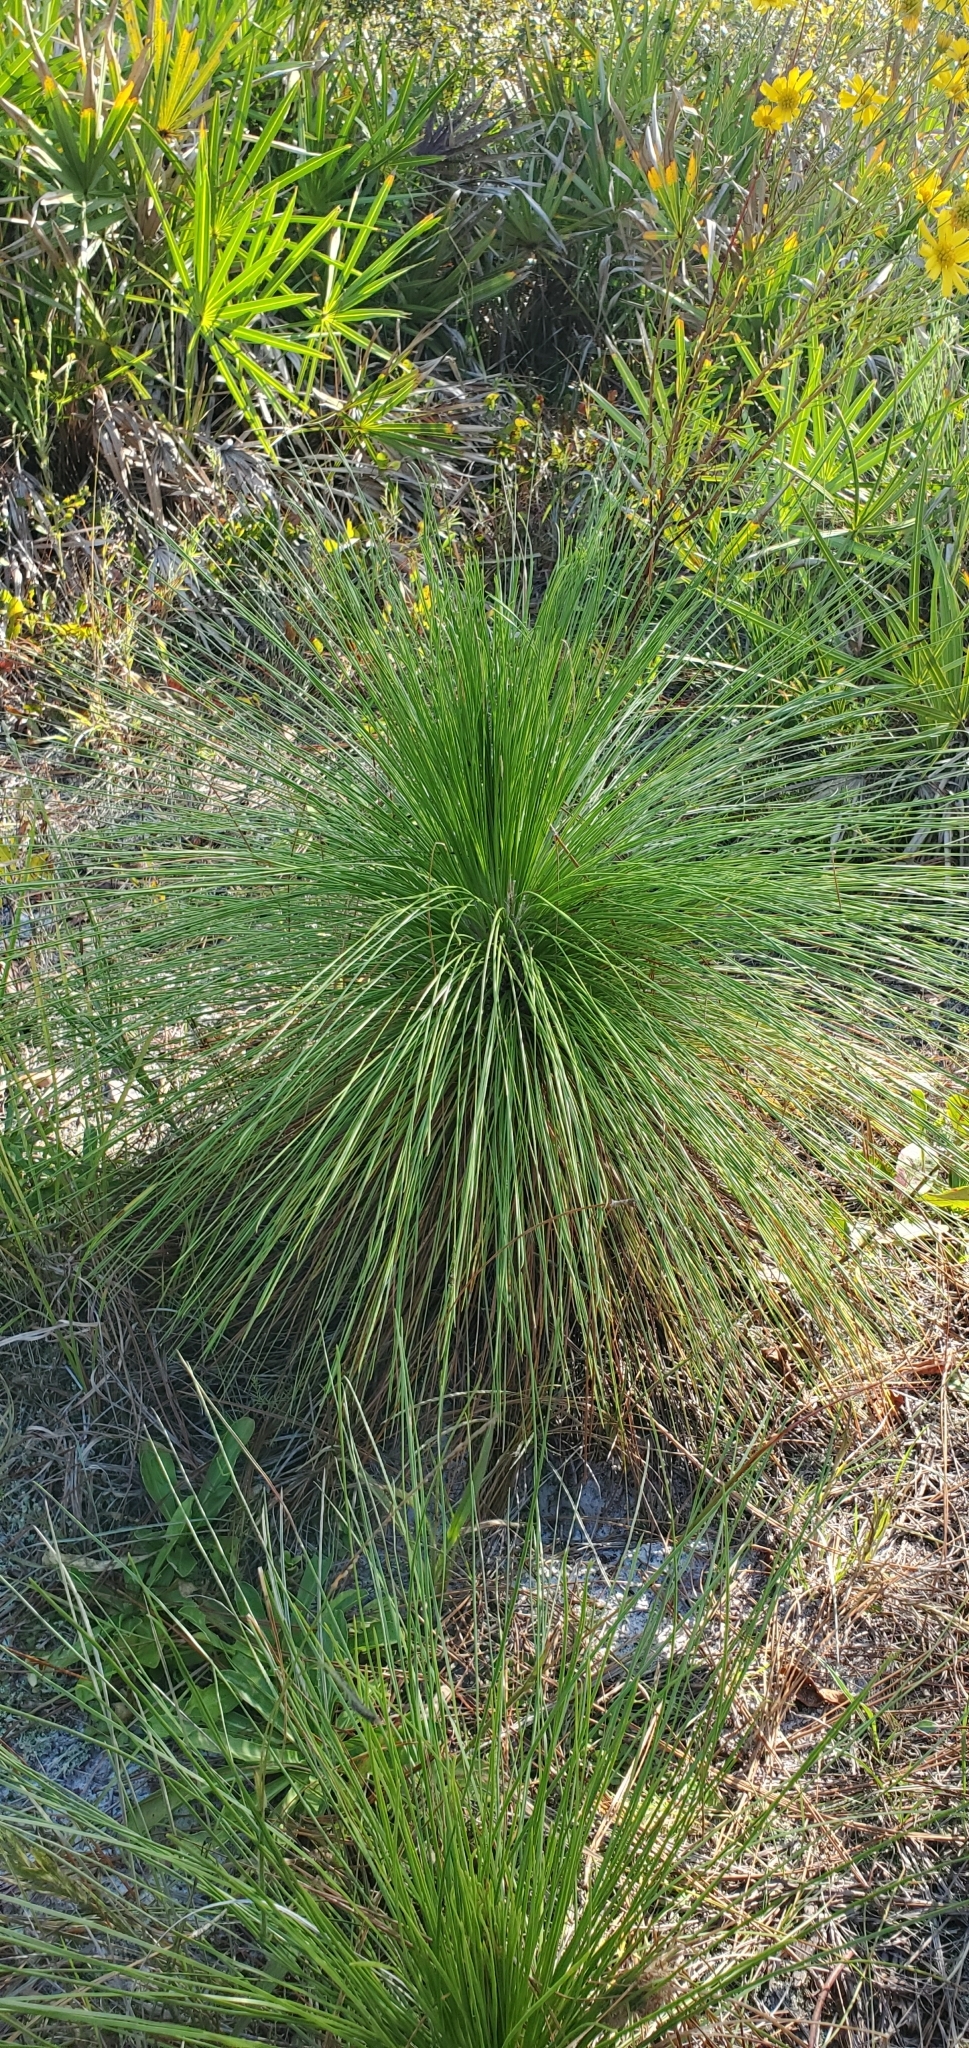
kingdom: Plantae
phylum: Tracheophyta
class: Pinopsida
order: Pinales
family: Pinaceae
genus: Pinus
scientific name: Pinus palustris
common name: Longleaf pine
